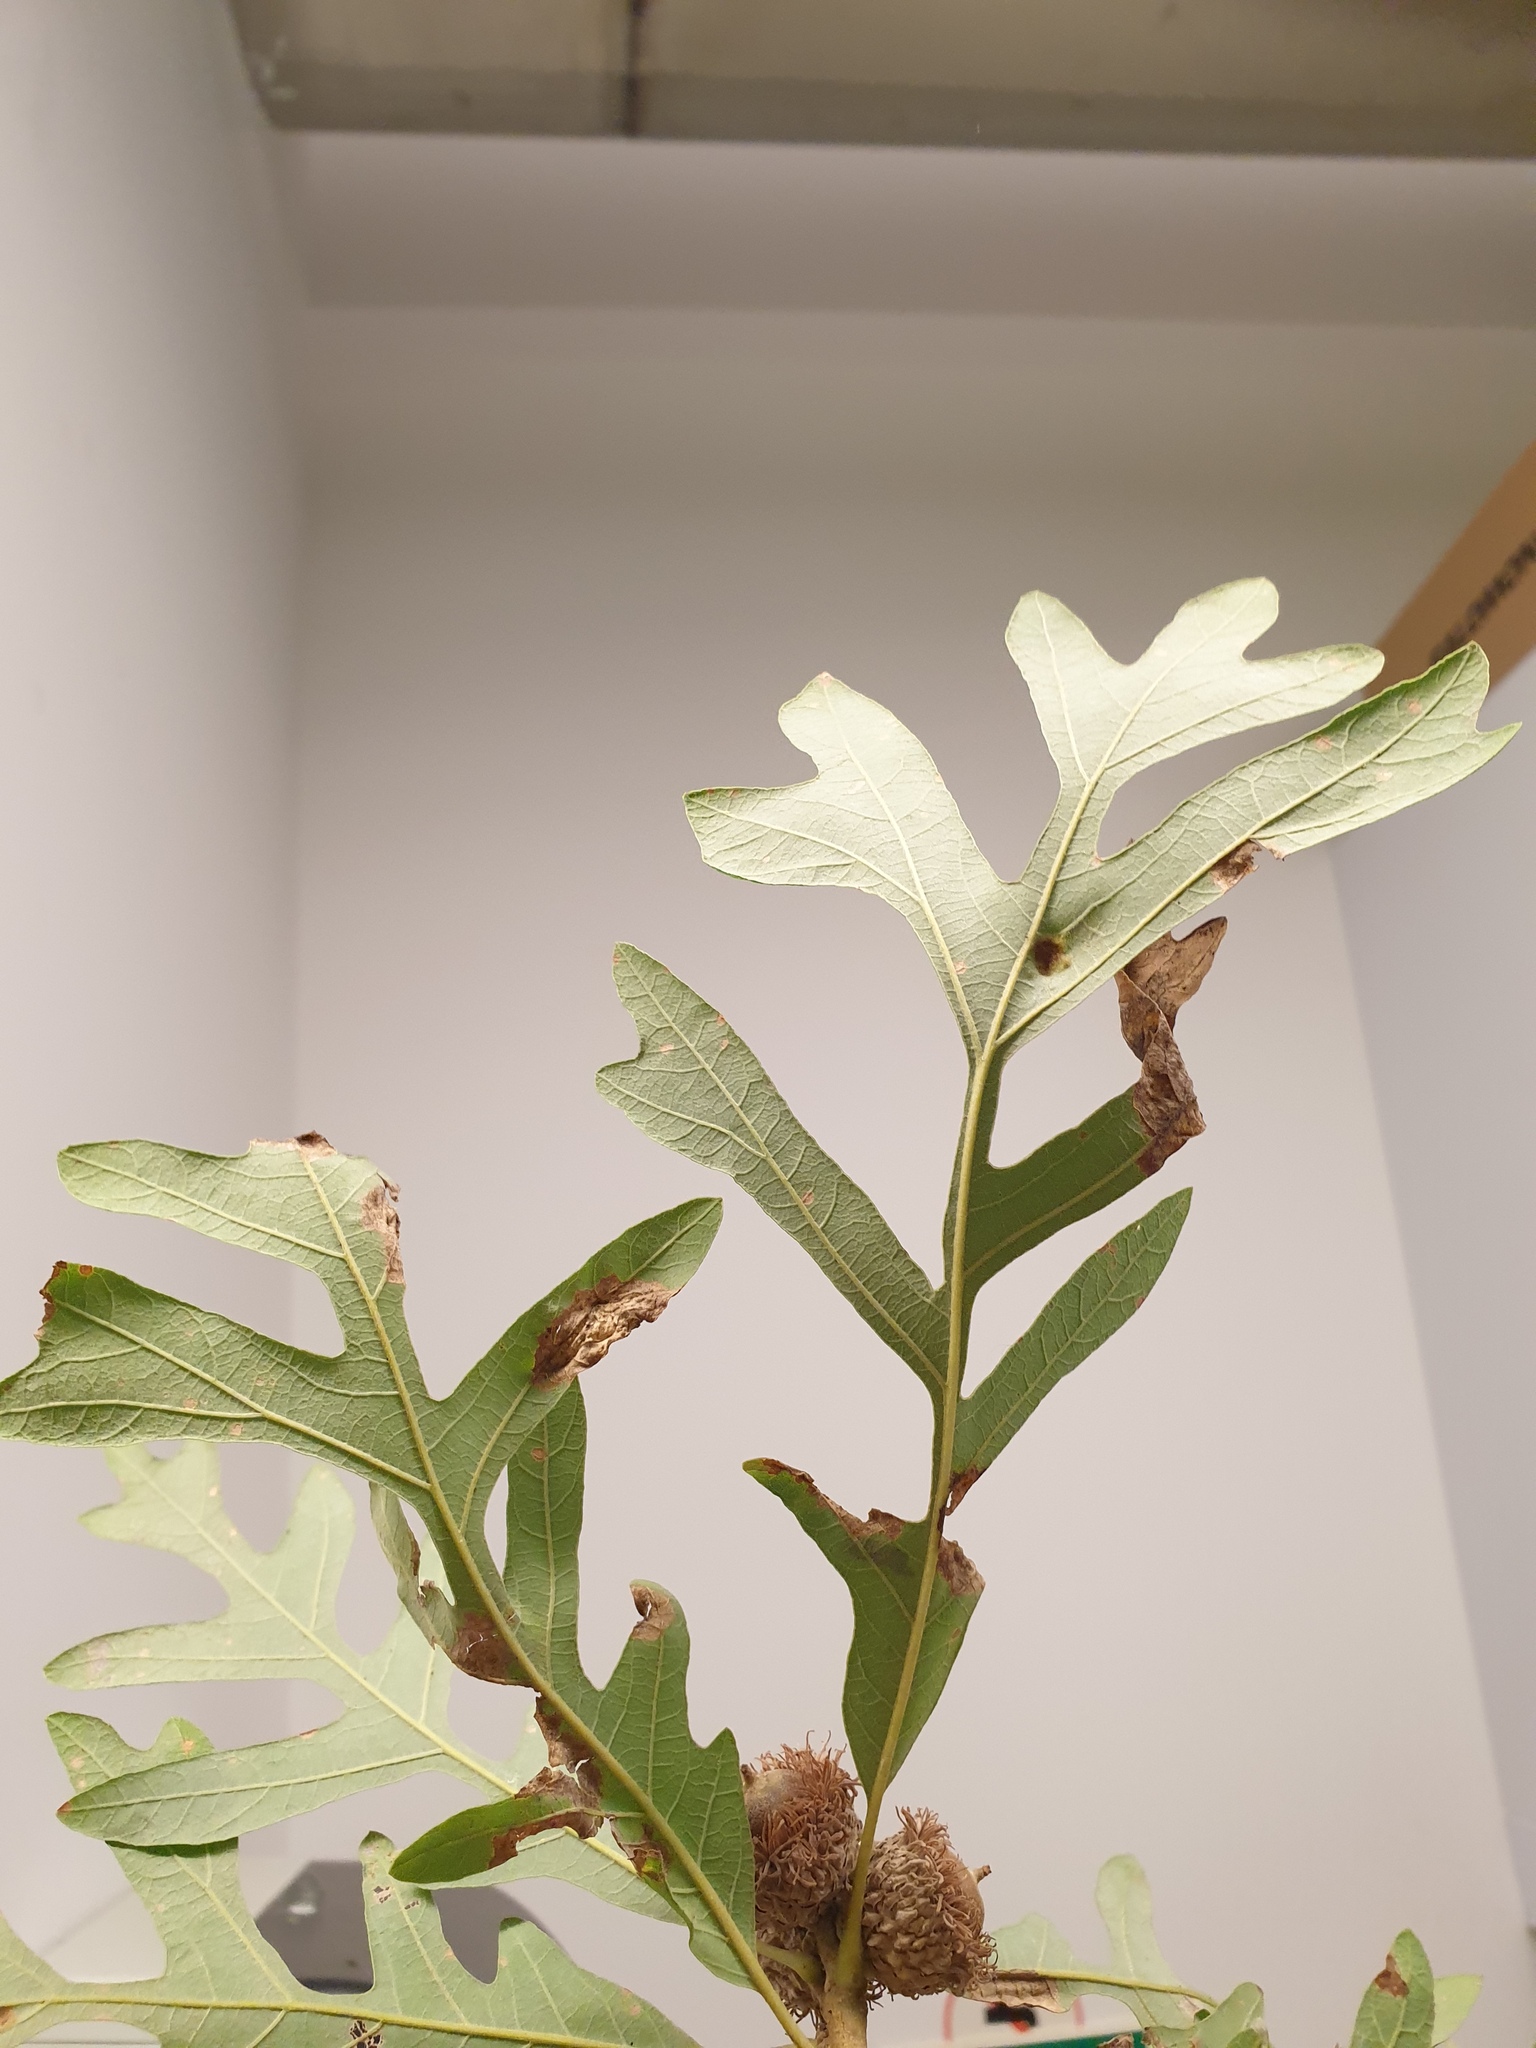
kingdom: Plantae
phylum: Tracheophyta
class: Magnoliopsida
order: Fagales
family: Fagaceae
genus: Quercus
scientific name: Quercus macrocarpa
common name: Bur oak
